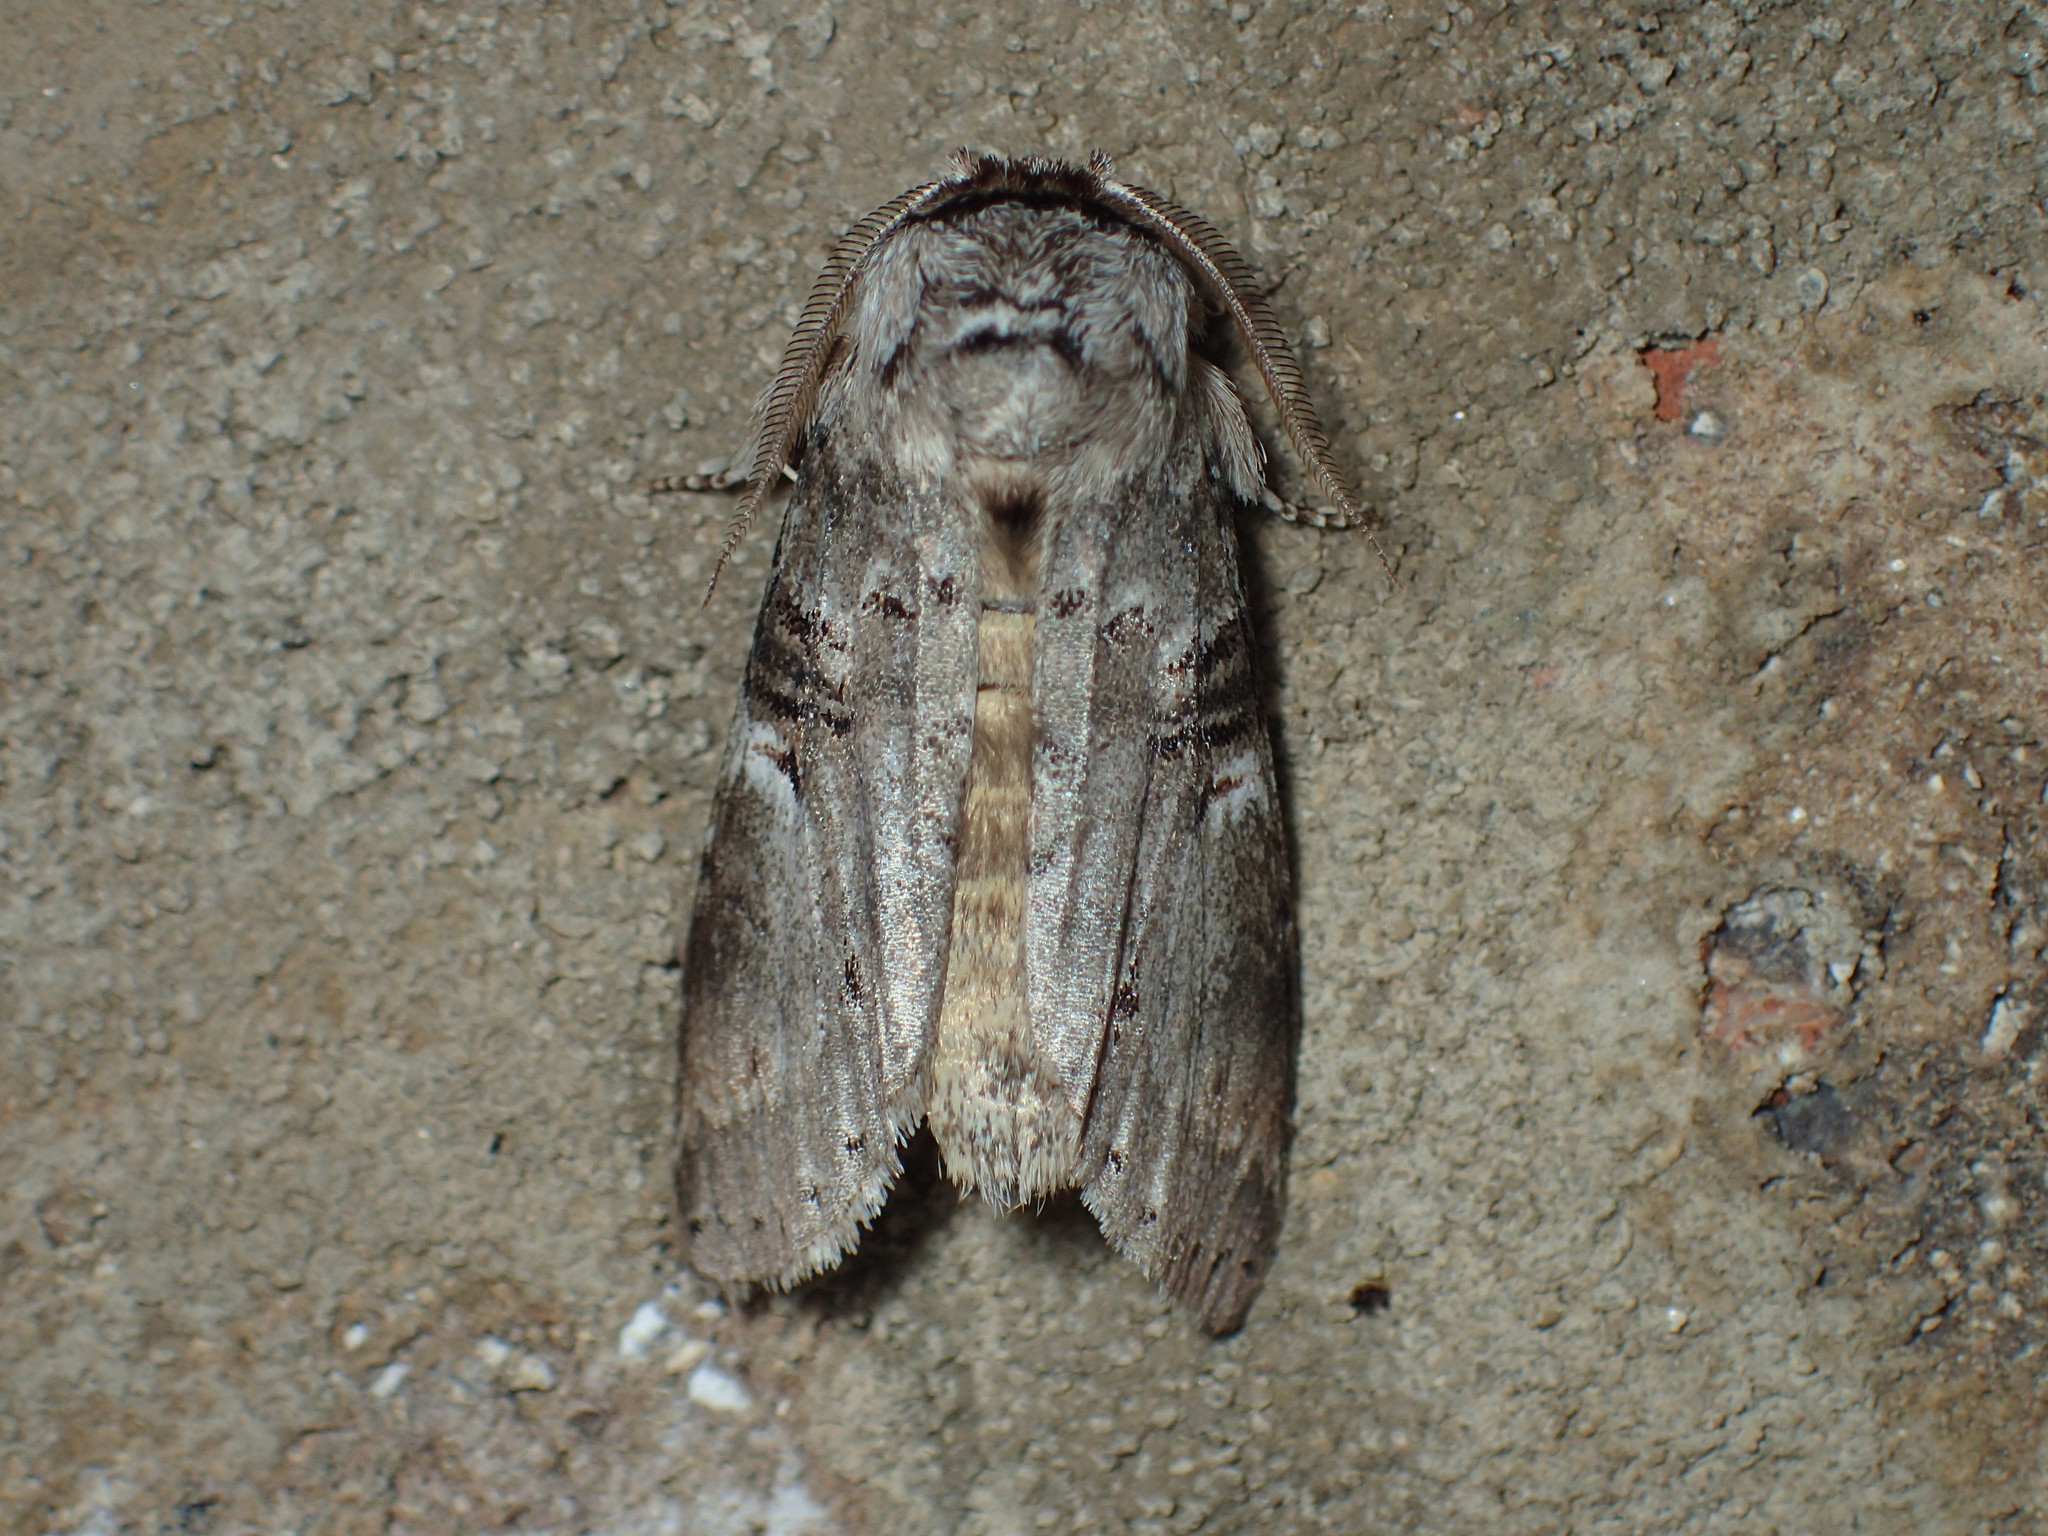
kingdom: Animalia
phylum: Arthropoda
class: Insecta
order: Lepidoptera
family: Notodontidae
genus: Ellida
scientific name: Ellida caniplaga
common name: Linden prominent
